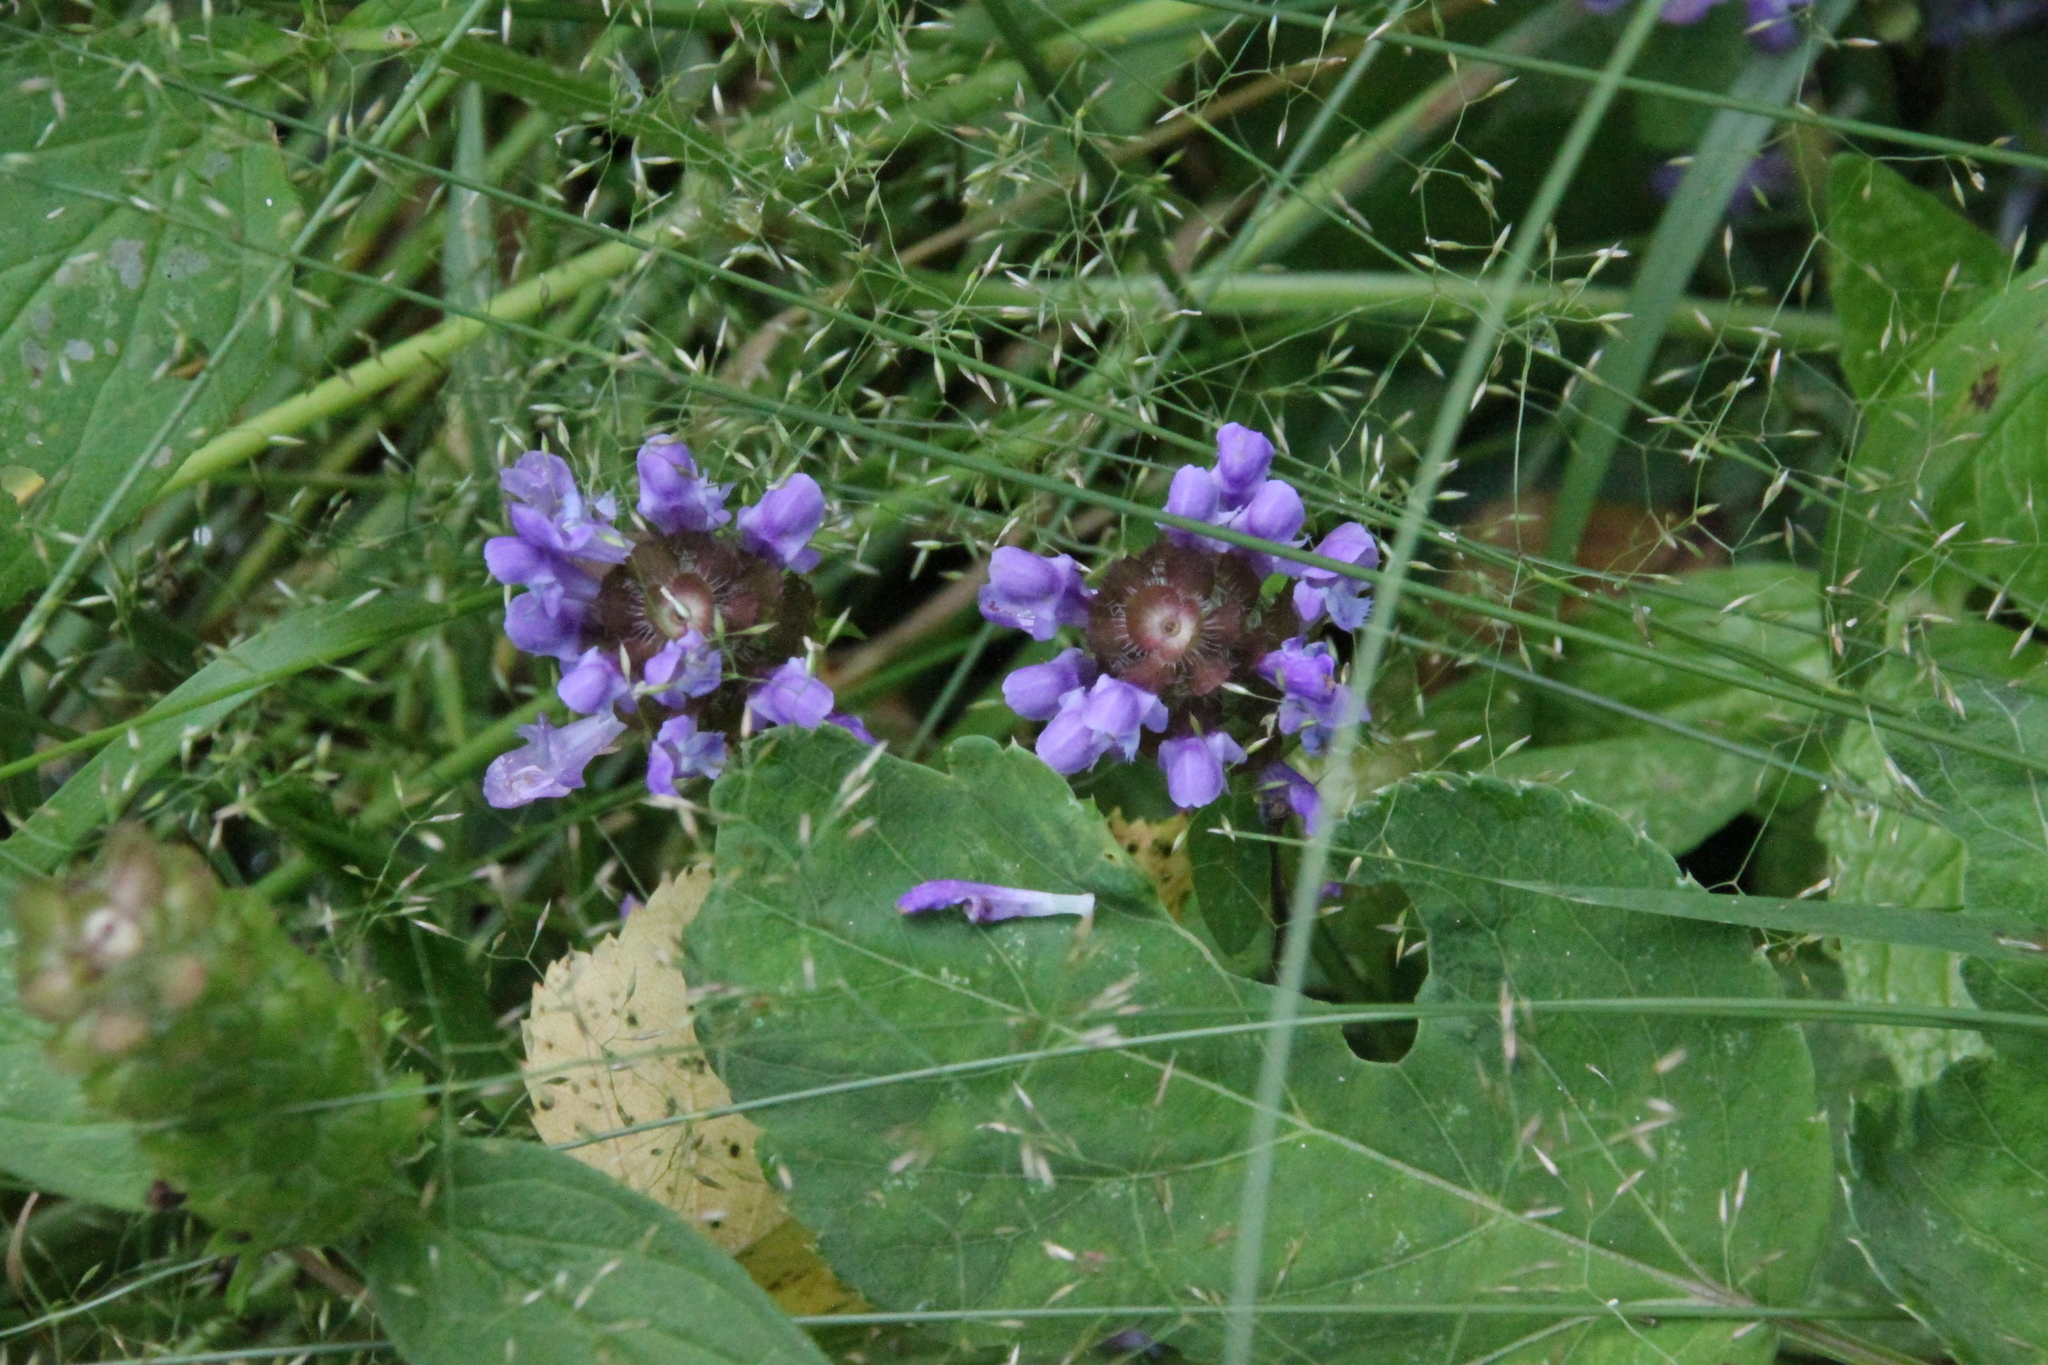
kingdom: Plantae
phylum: Tracheophyta
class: Magnoliopsida
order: Lamiales
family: Lamiaceae
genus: Prunella
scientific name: Prunella vulgaris
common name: Heal-all
